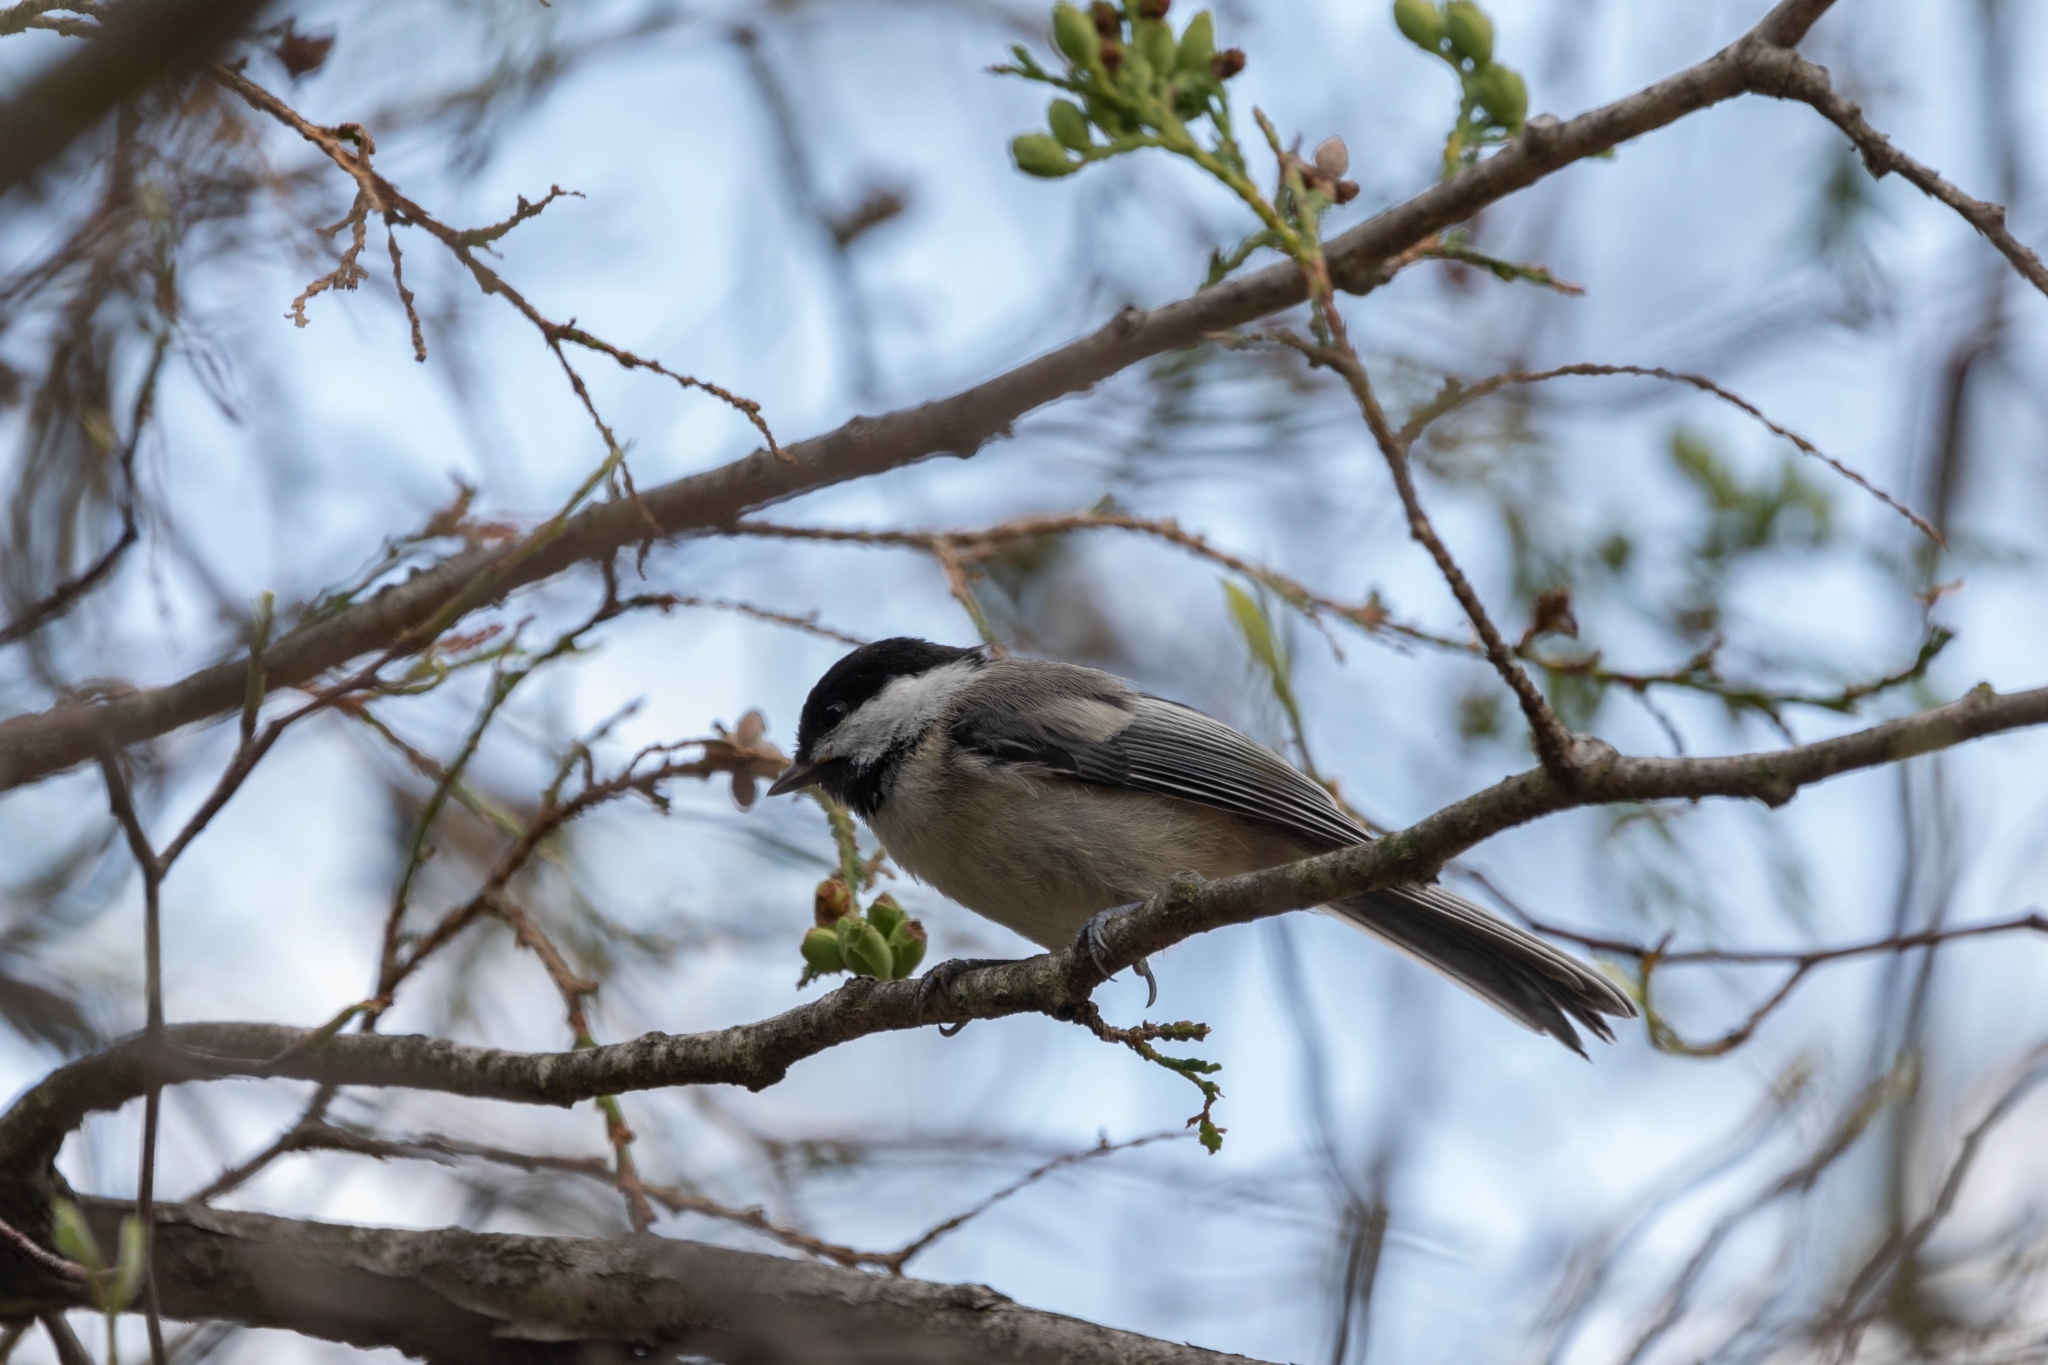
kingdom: Animalia
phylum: Chordata
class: Aves
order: Passeriformes
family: Paridae
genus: Poecile
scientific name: Poecile atricapillus
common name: Black-capped chickadee
